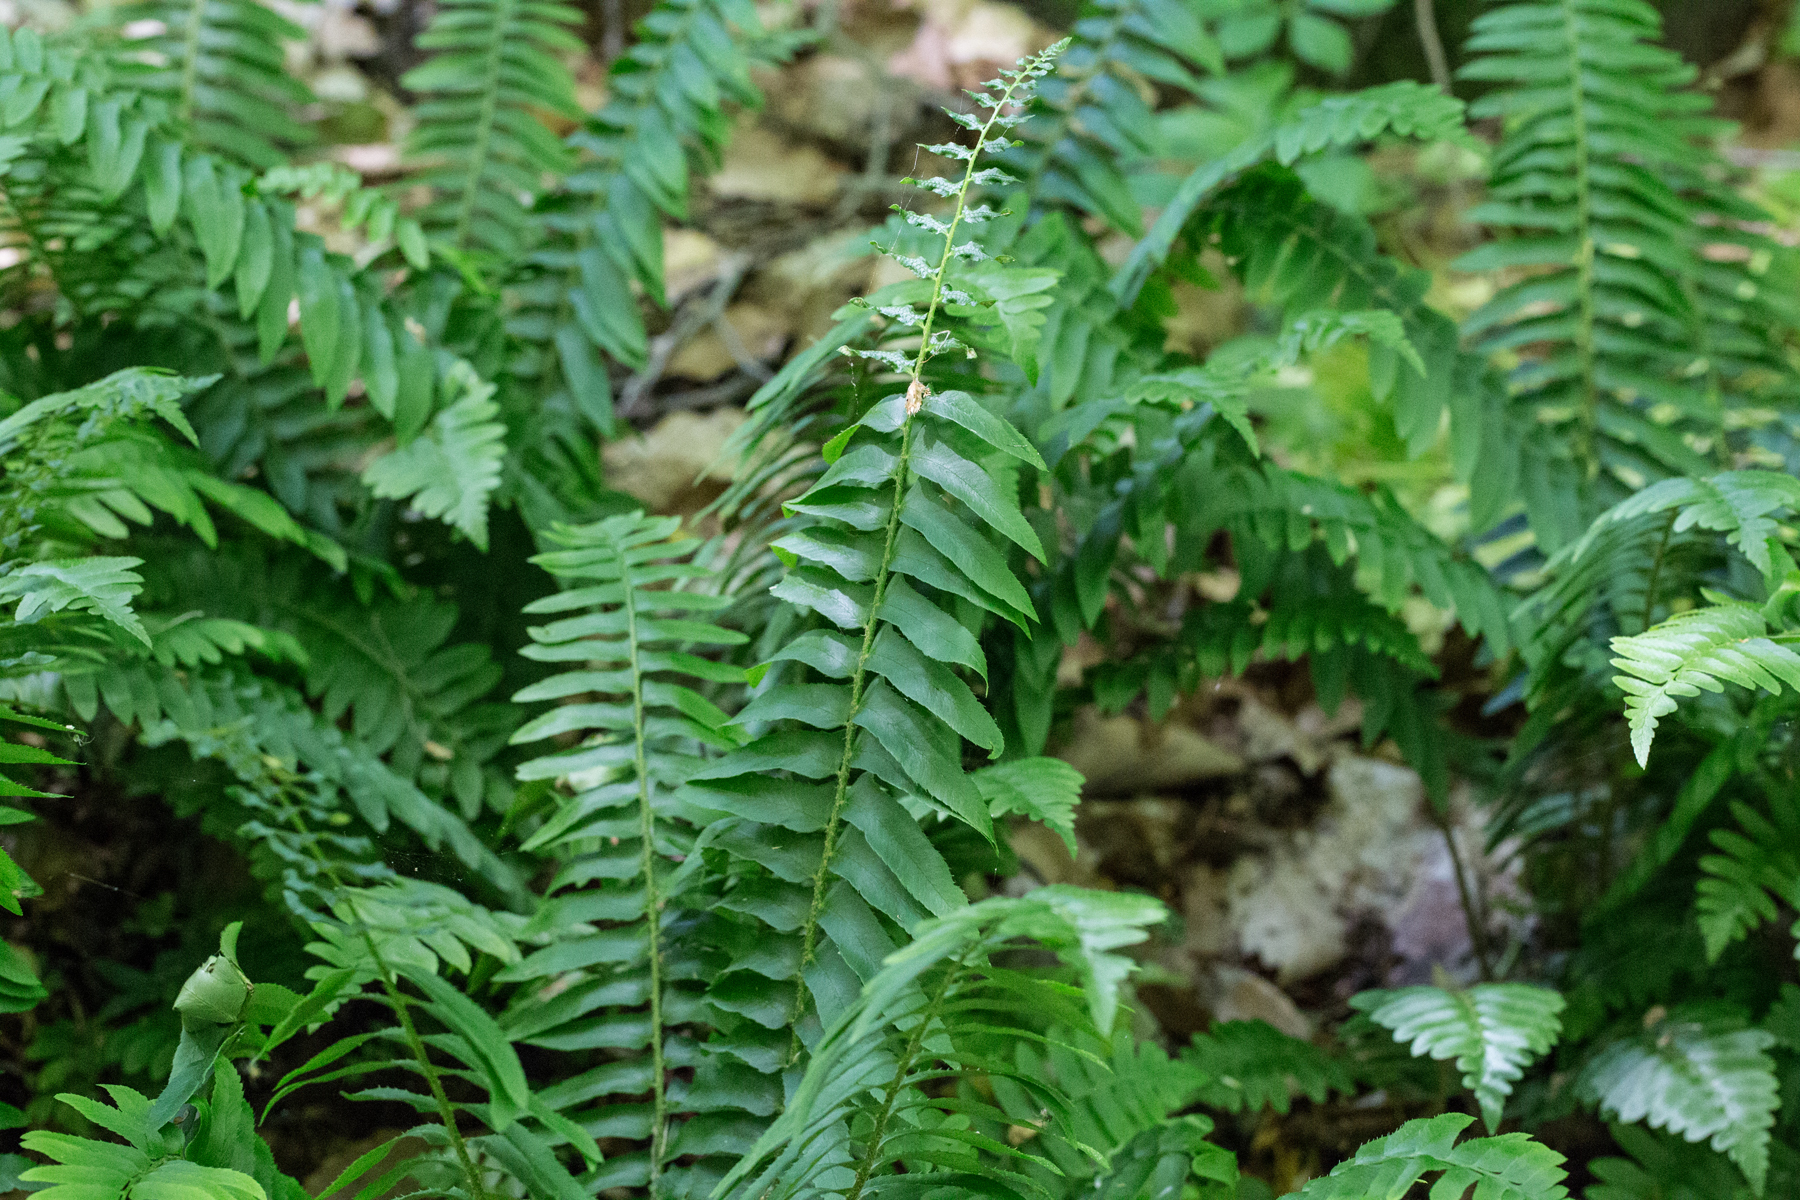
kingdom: Plantae
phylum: Tracheophyta
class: Polypodiopsida
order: Polypodiales
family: Dryopteridaceae
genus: Polystichum
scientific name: Polystichum acrostichoides
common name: Christmas fern
